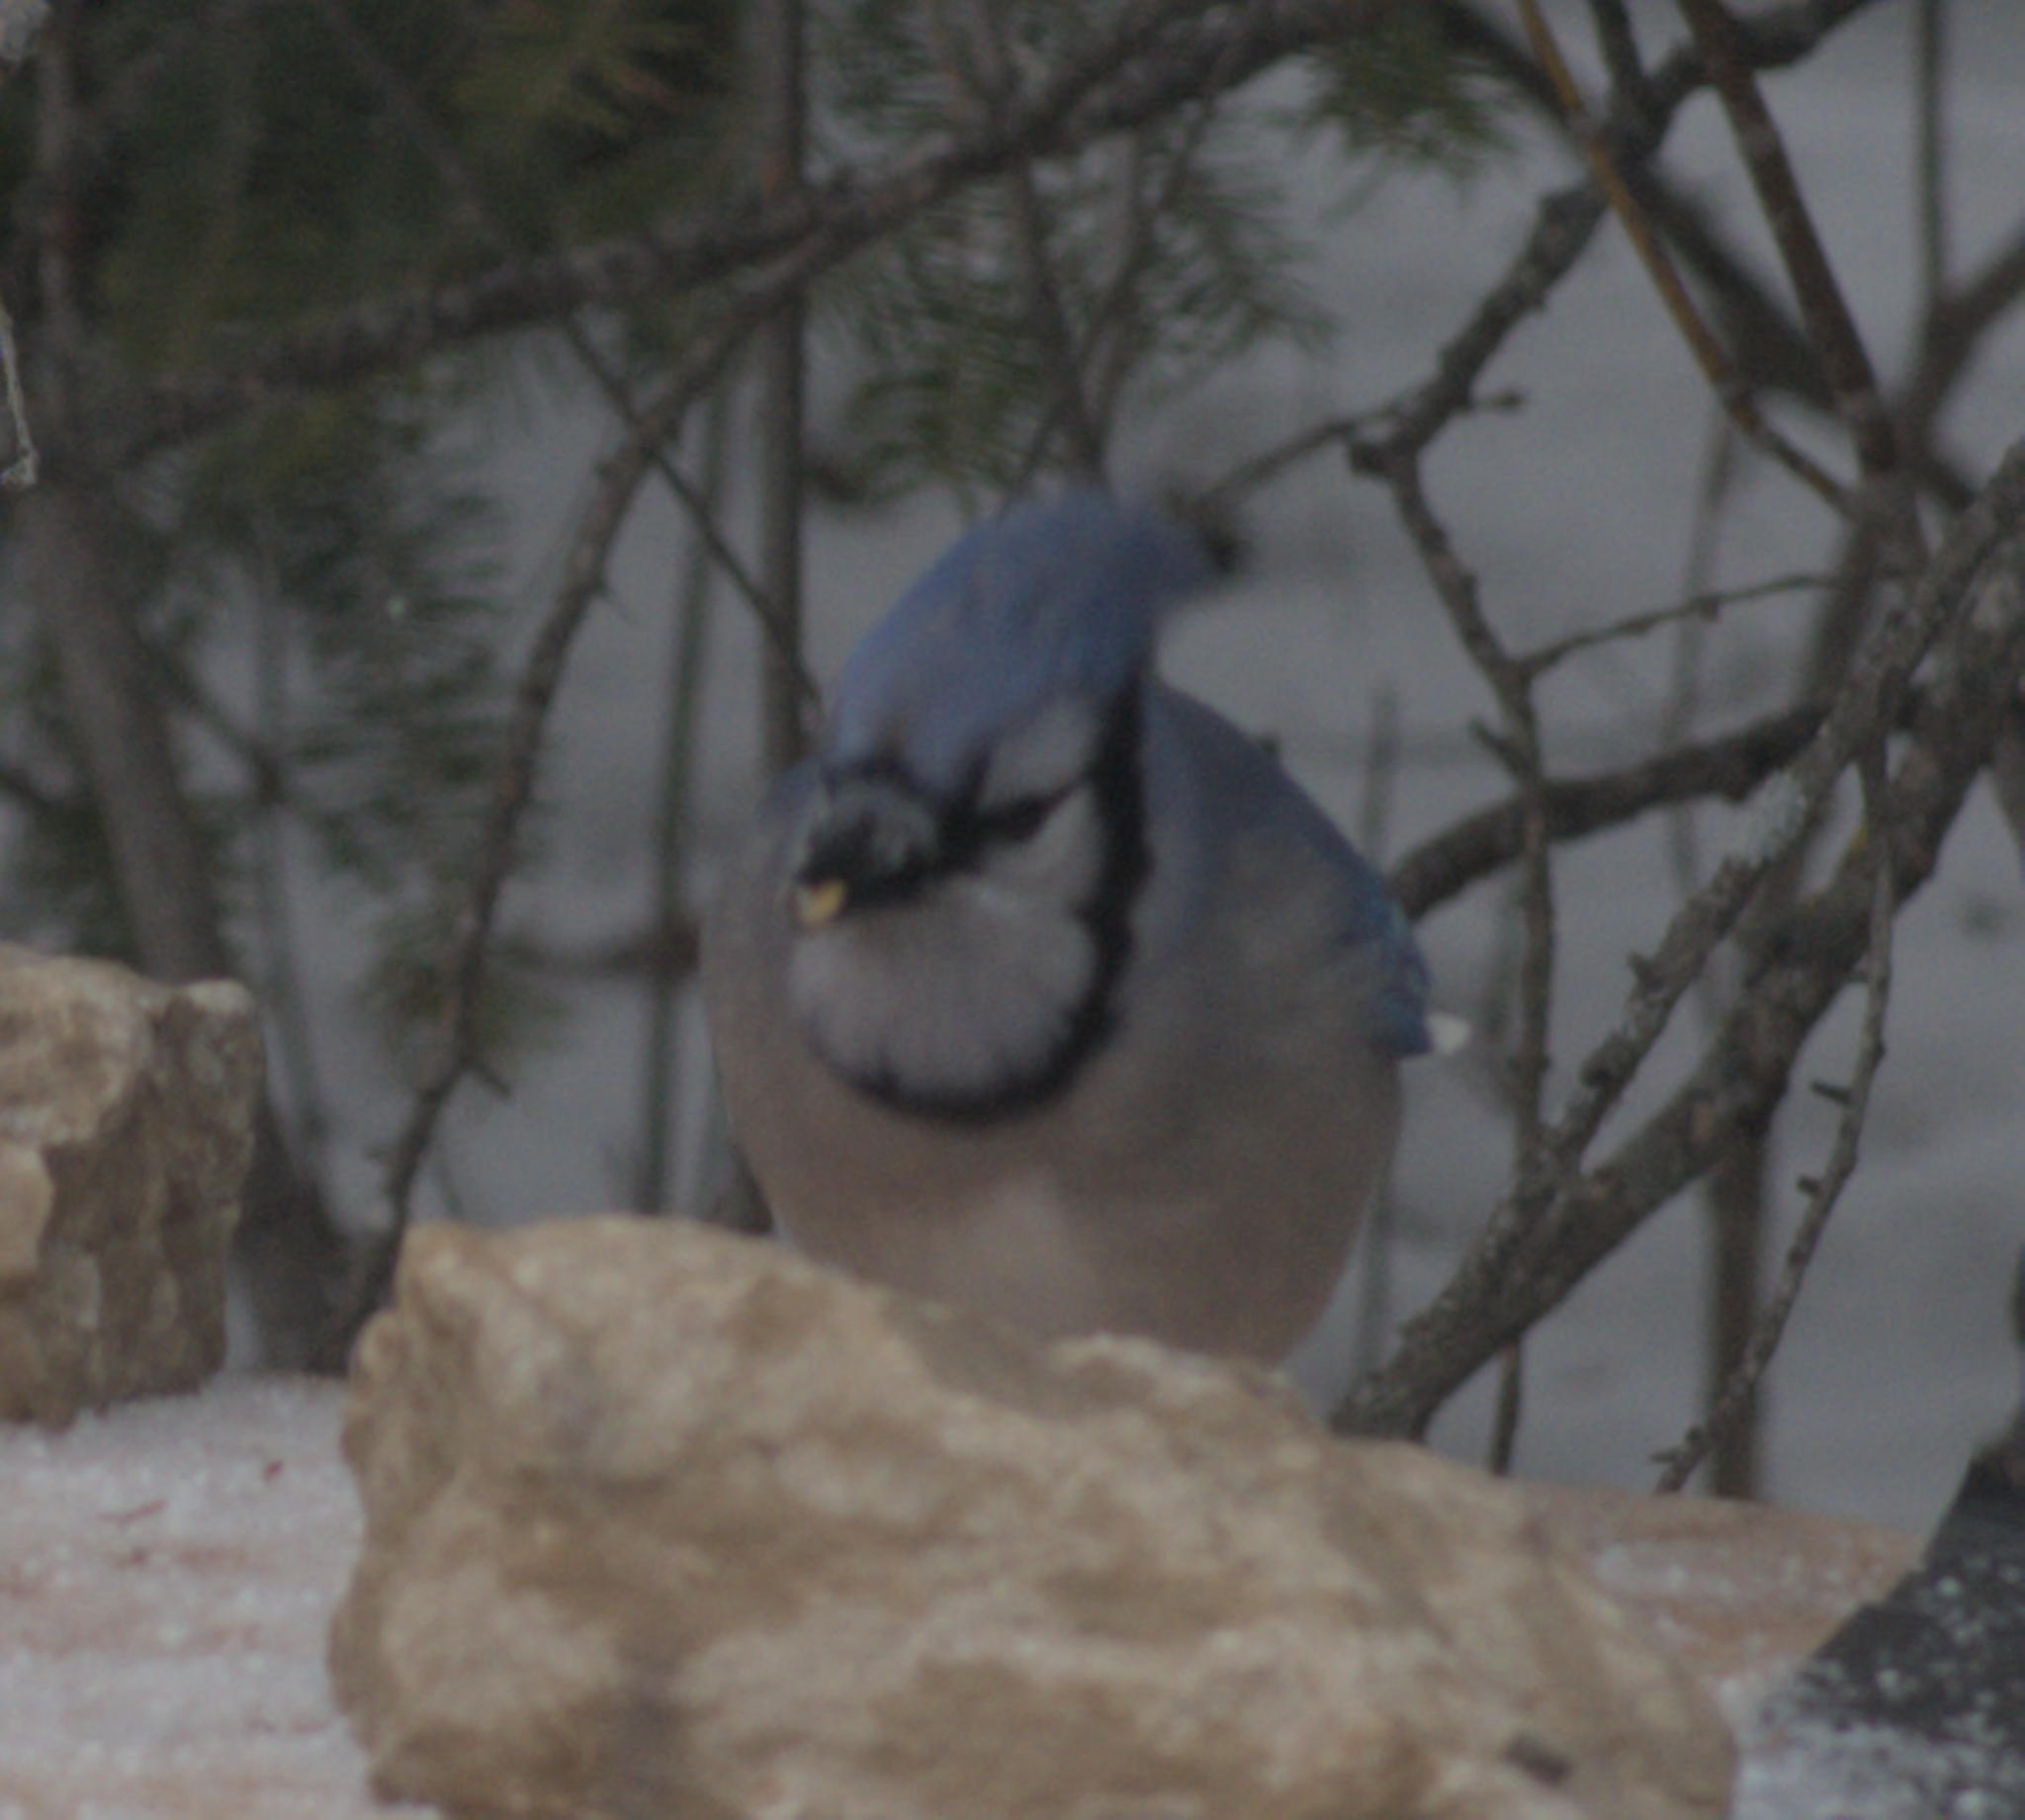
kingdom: Animalia
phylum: Chordata
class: Aves
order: Passeriformes
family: Corvidae
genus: Cyanocitta
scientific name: Cyanocitta cristata
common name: Blue jay
